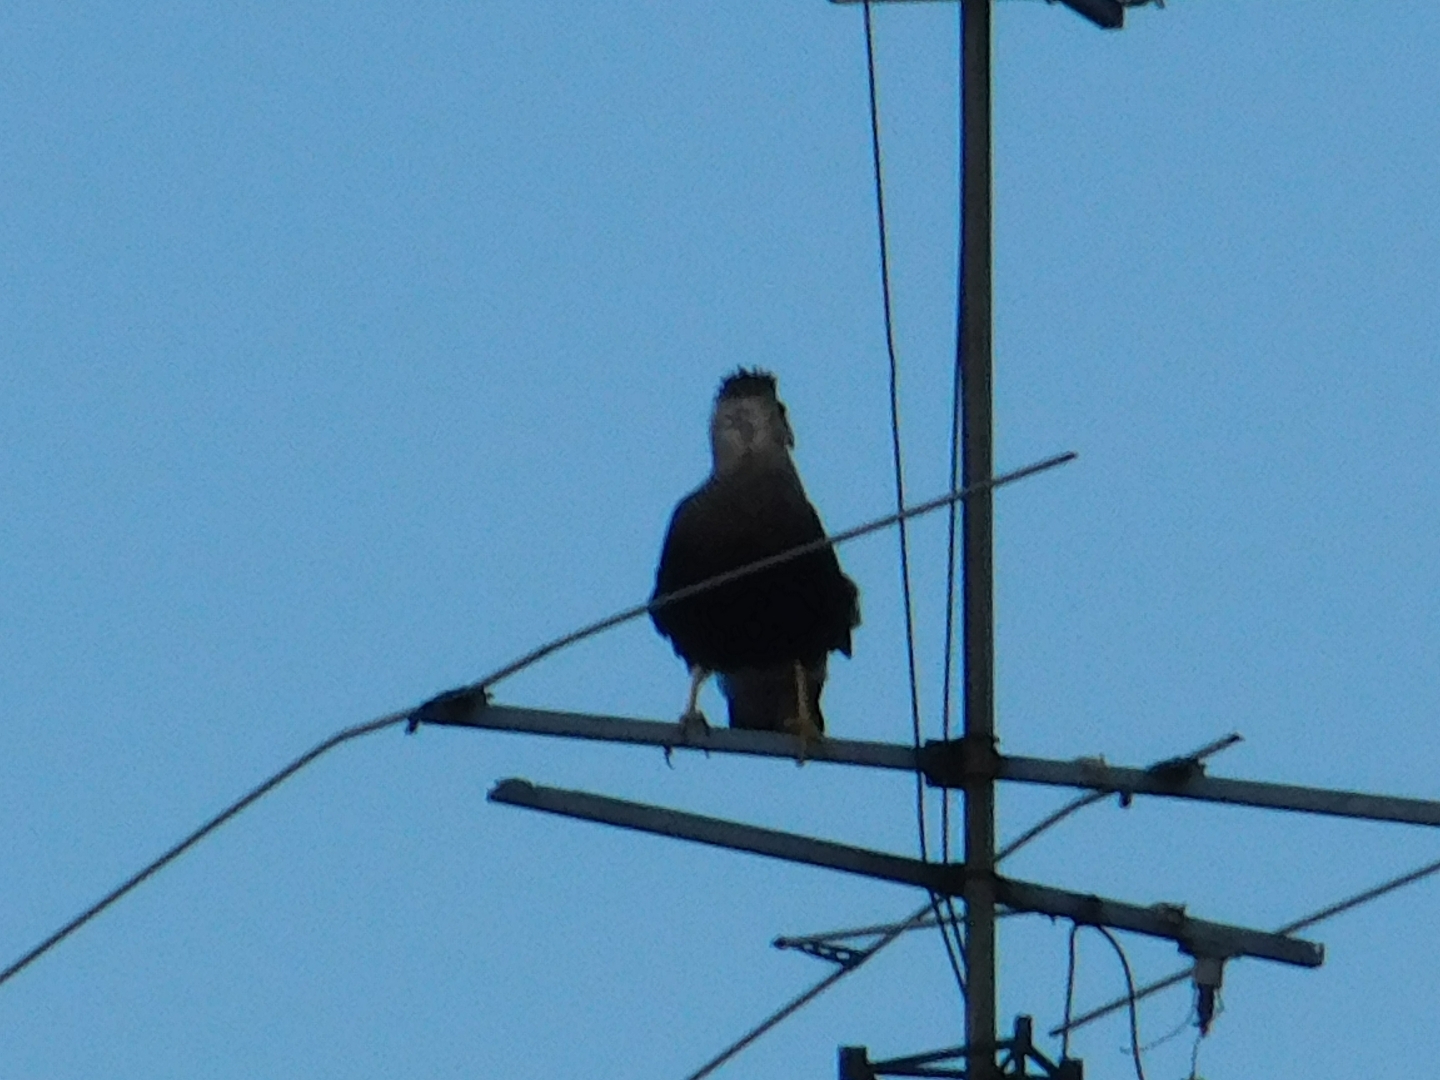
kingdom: Animalia
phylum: Chordata
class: Aves
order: Falconiformes
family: Falconidae
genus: Caracara
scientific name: Caracara plancus
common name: Southern caracara
